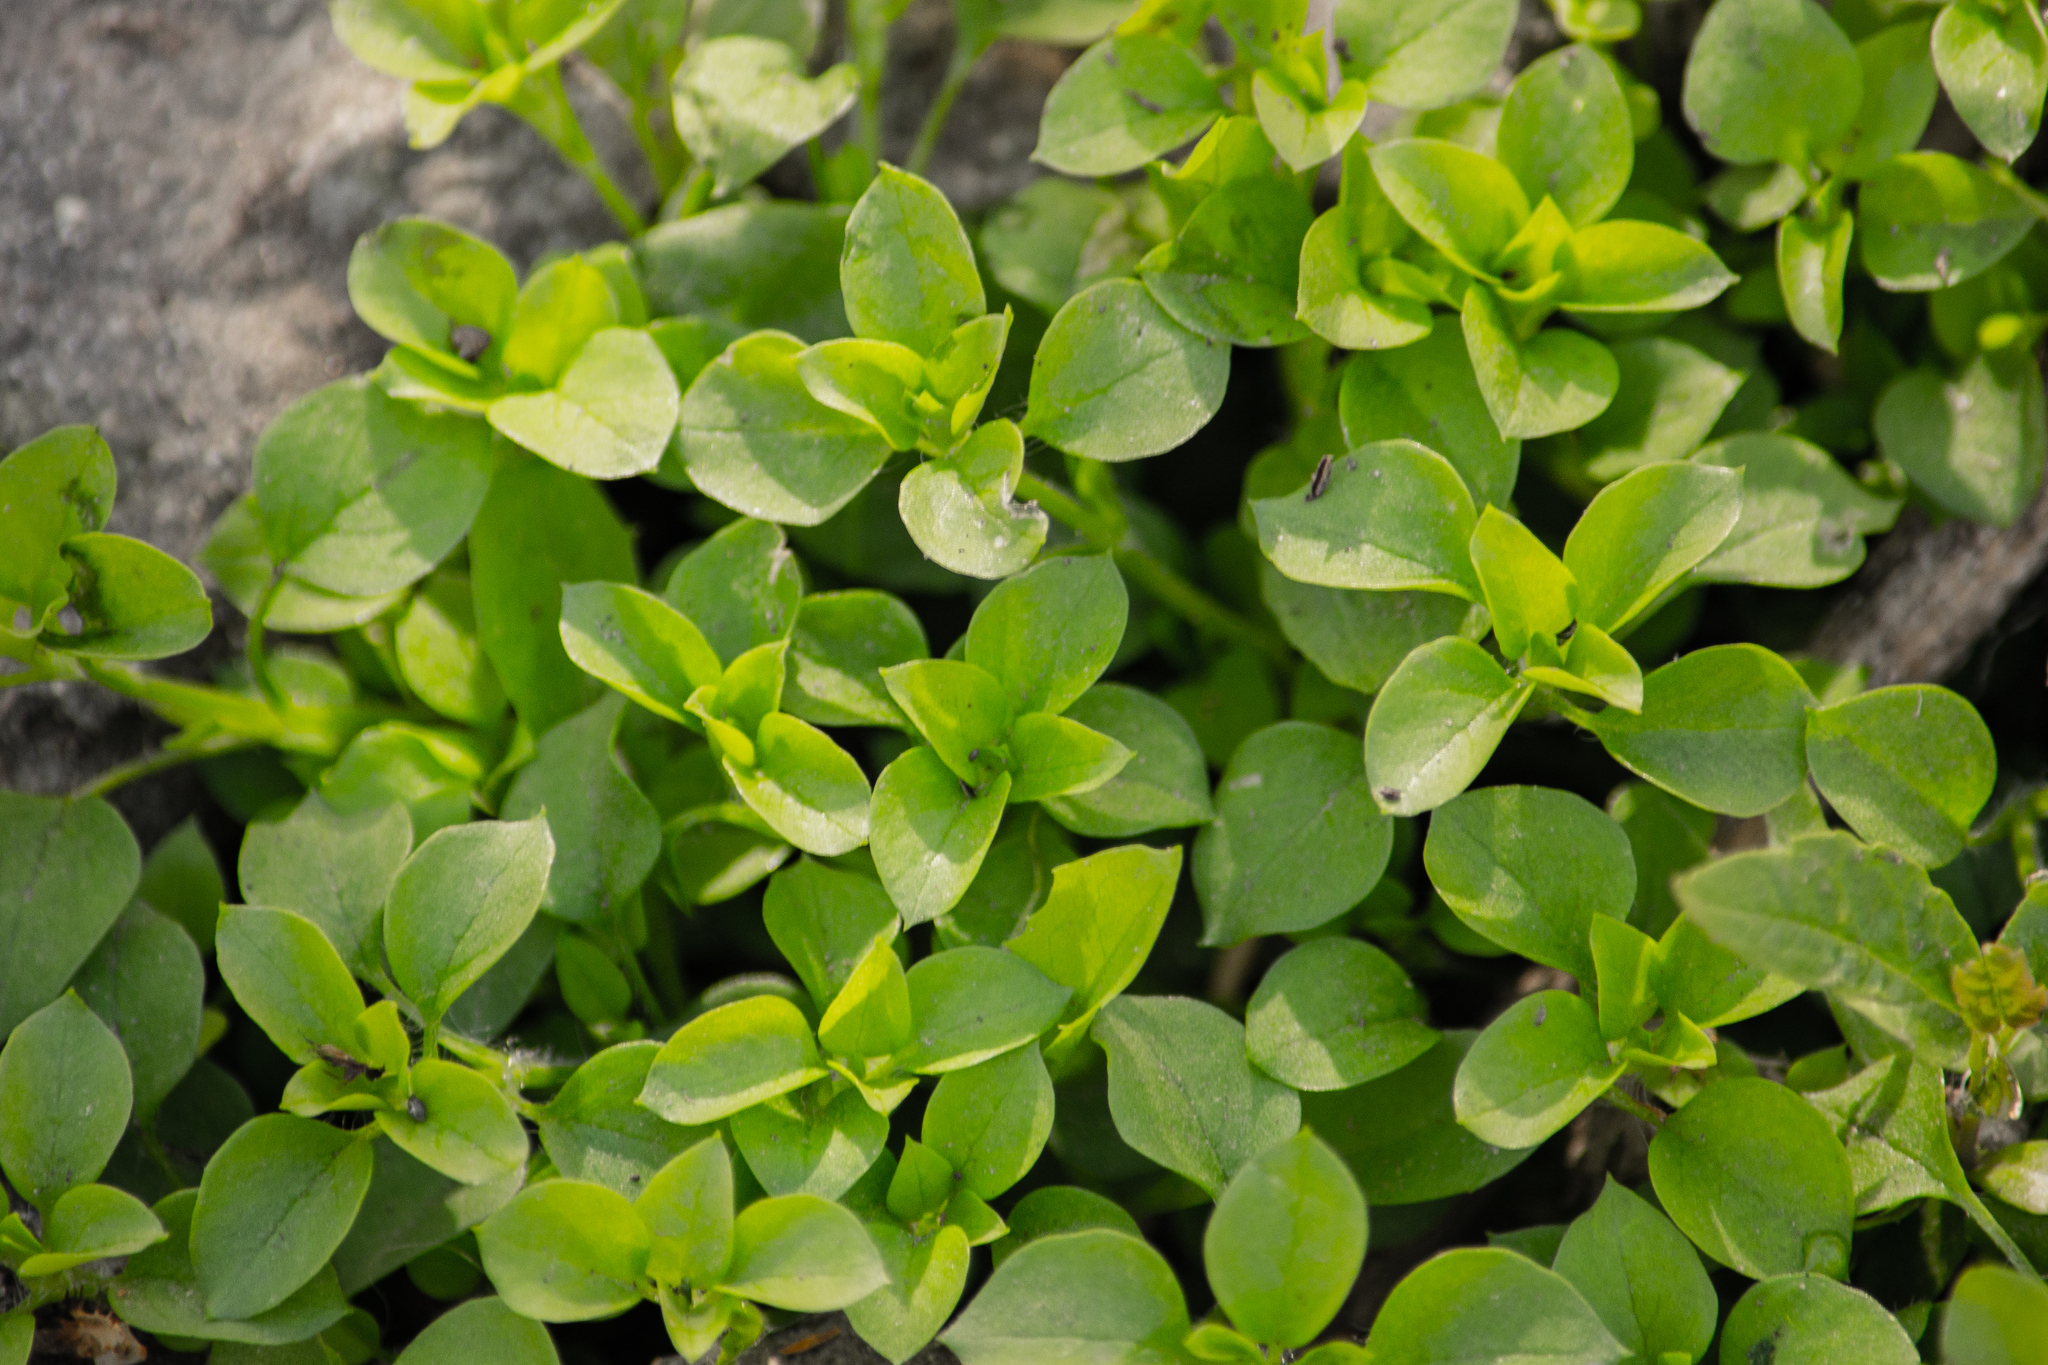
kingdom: Plantae
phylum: Tracheophyta
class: Magnoliopsida
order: Caryophyllales
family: Caryophyllaceae
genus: Stellaria
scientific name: Stellaria media
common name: Common chickweed
